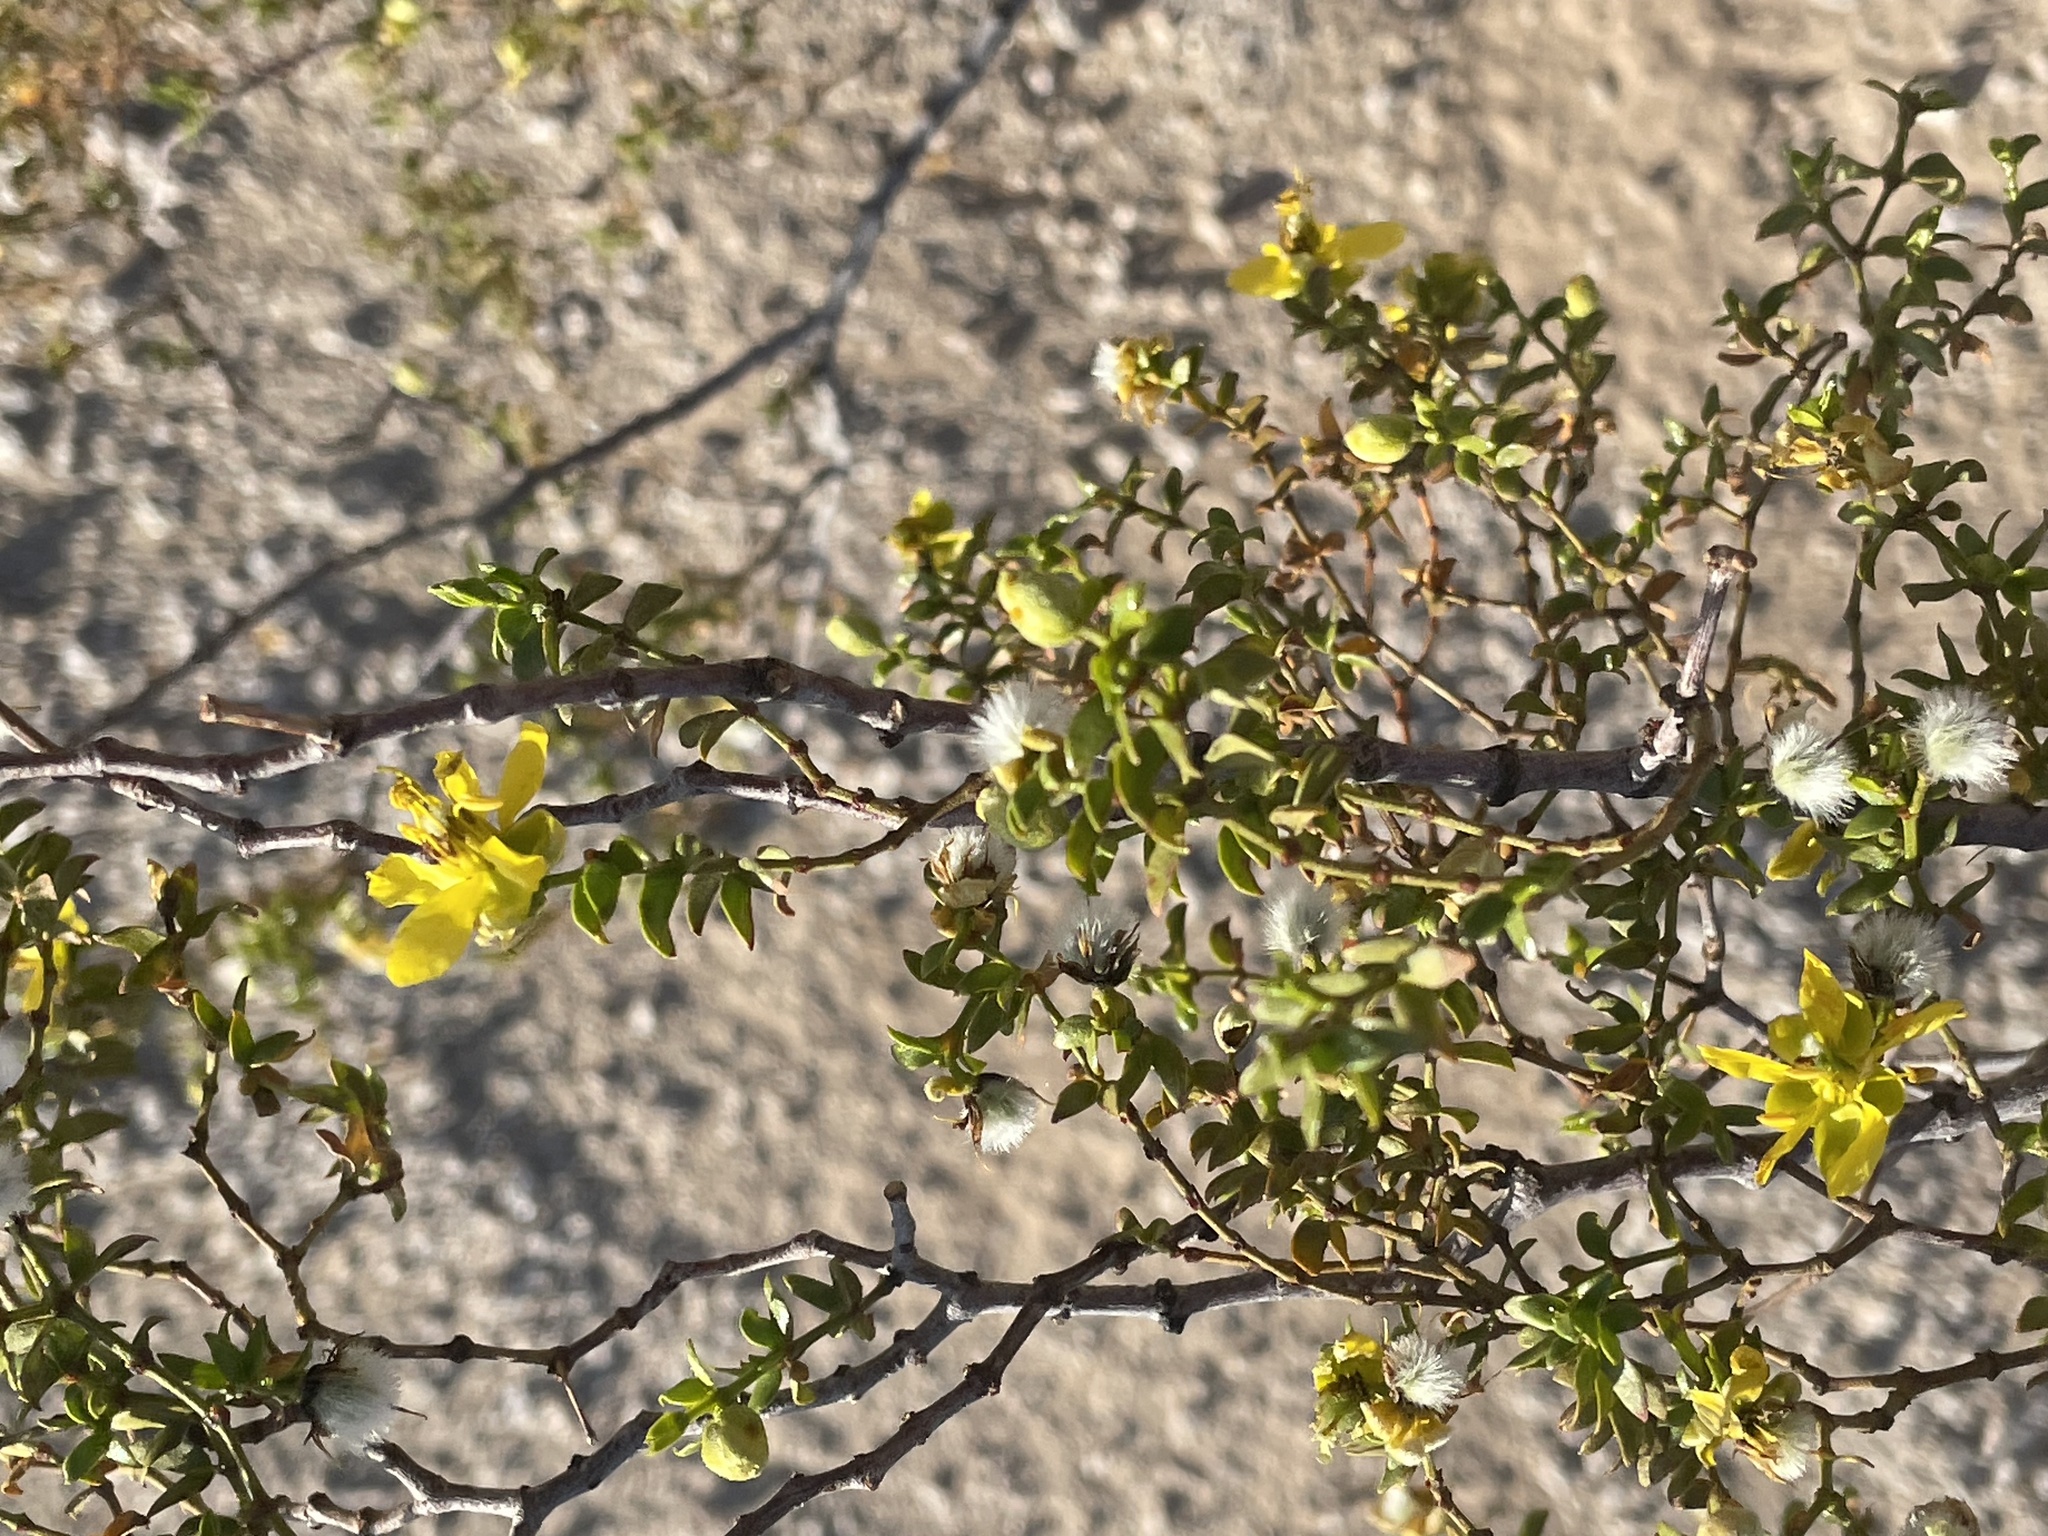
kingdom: Plantae
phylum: Tracheophyta
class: Magnoliopsida
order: Zygophyllales
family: Zygophyllaceae
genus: Larrea
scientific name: Larrea tridentata
